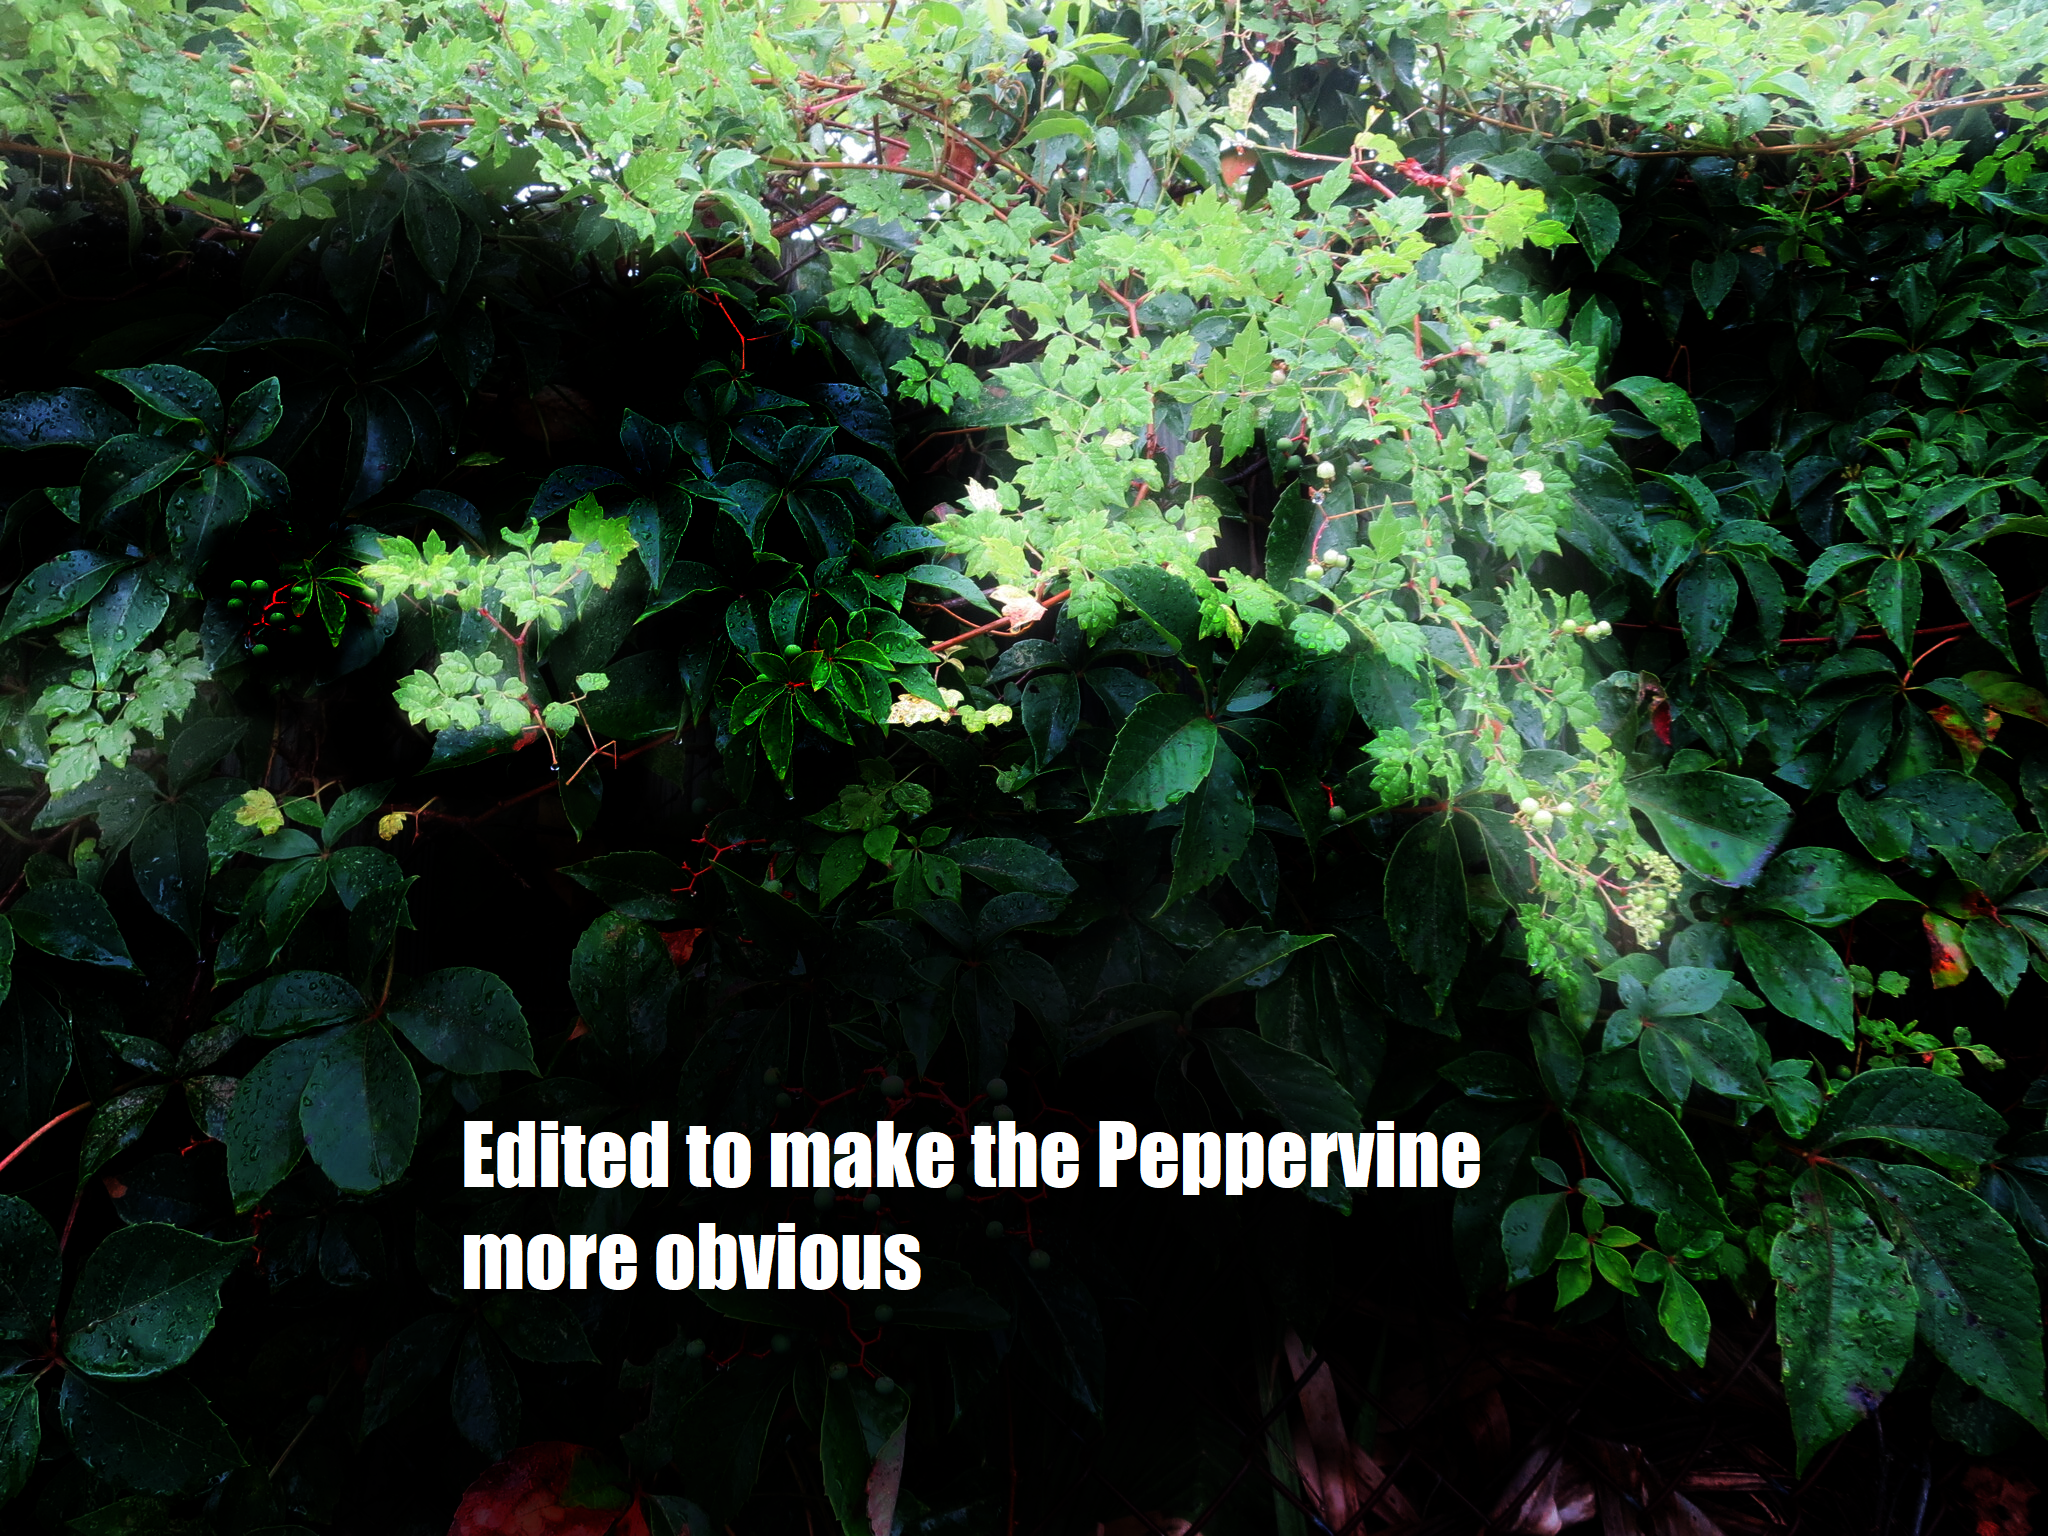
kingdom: Plantae
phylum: Tracheophyta
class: Magnoliopsida
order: Vitales
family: Vitaceae
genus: Nekemias
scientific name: Nekemias arborea
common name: Peppervine
